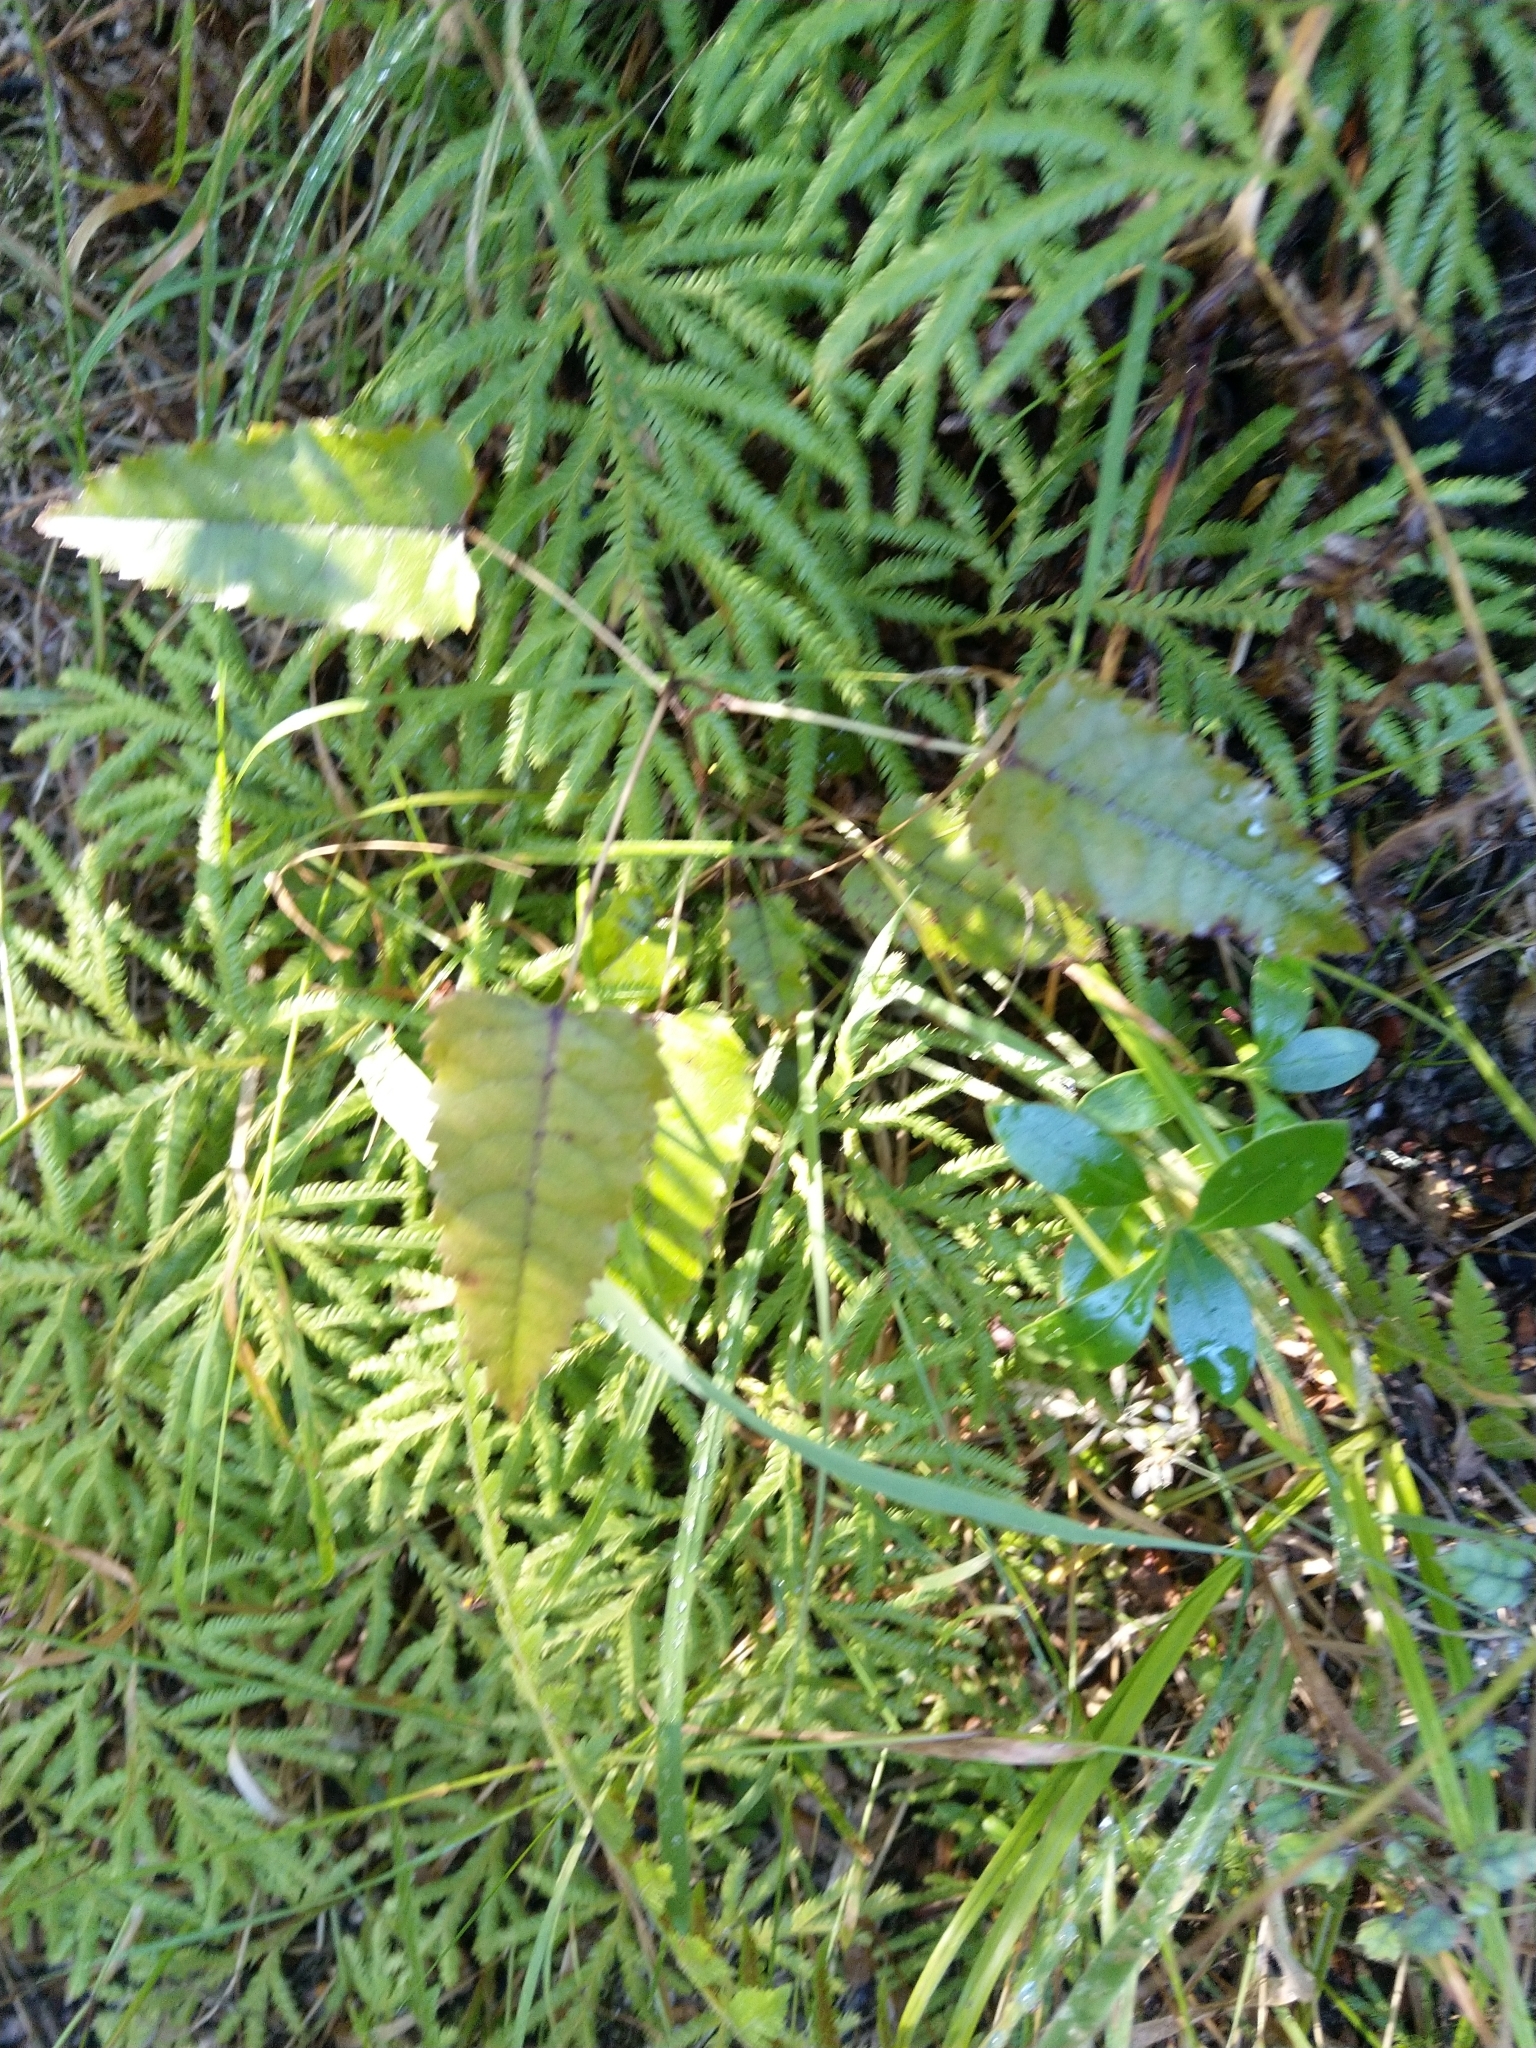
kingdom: Plantae
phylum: Tracheophyta
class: Magnoliopsida
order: Rosales
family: Rosaceae
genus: Rubus
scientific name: Rubus cissoides
